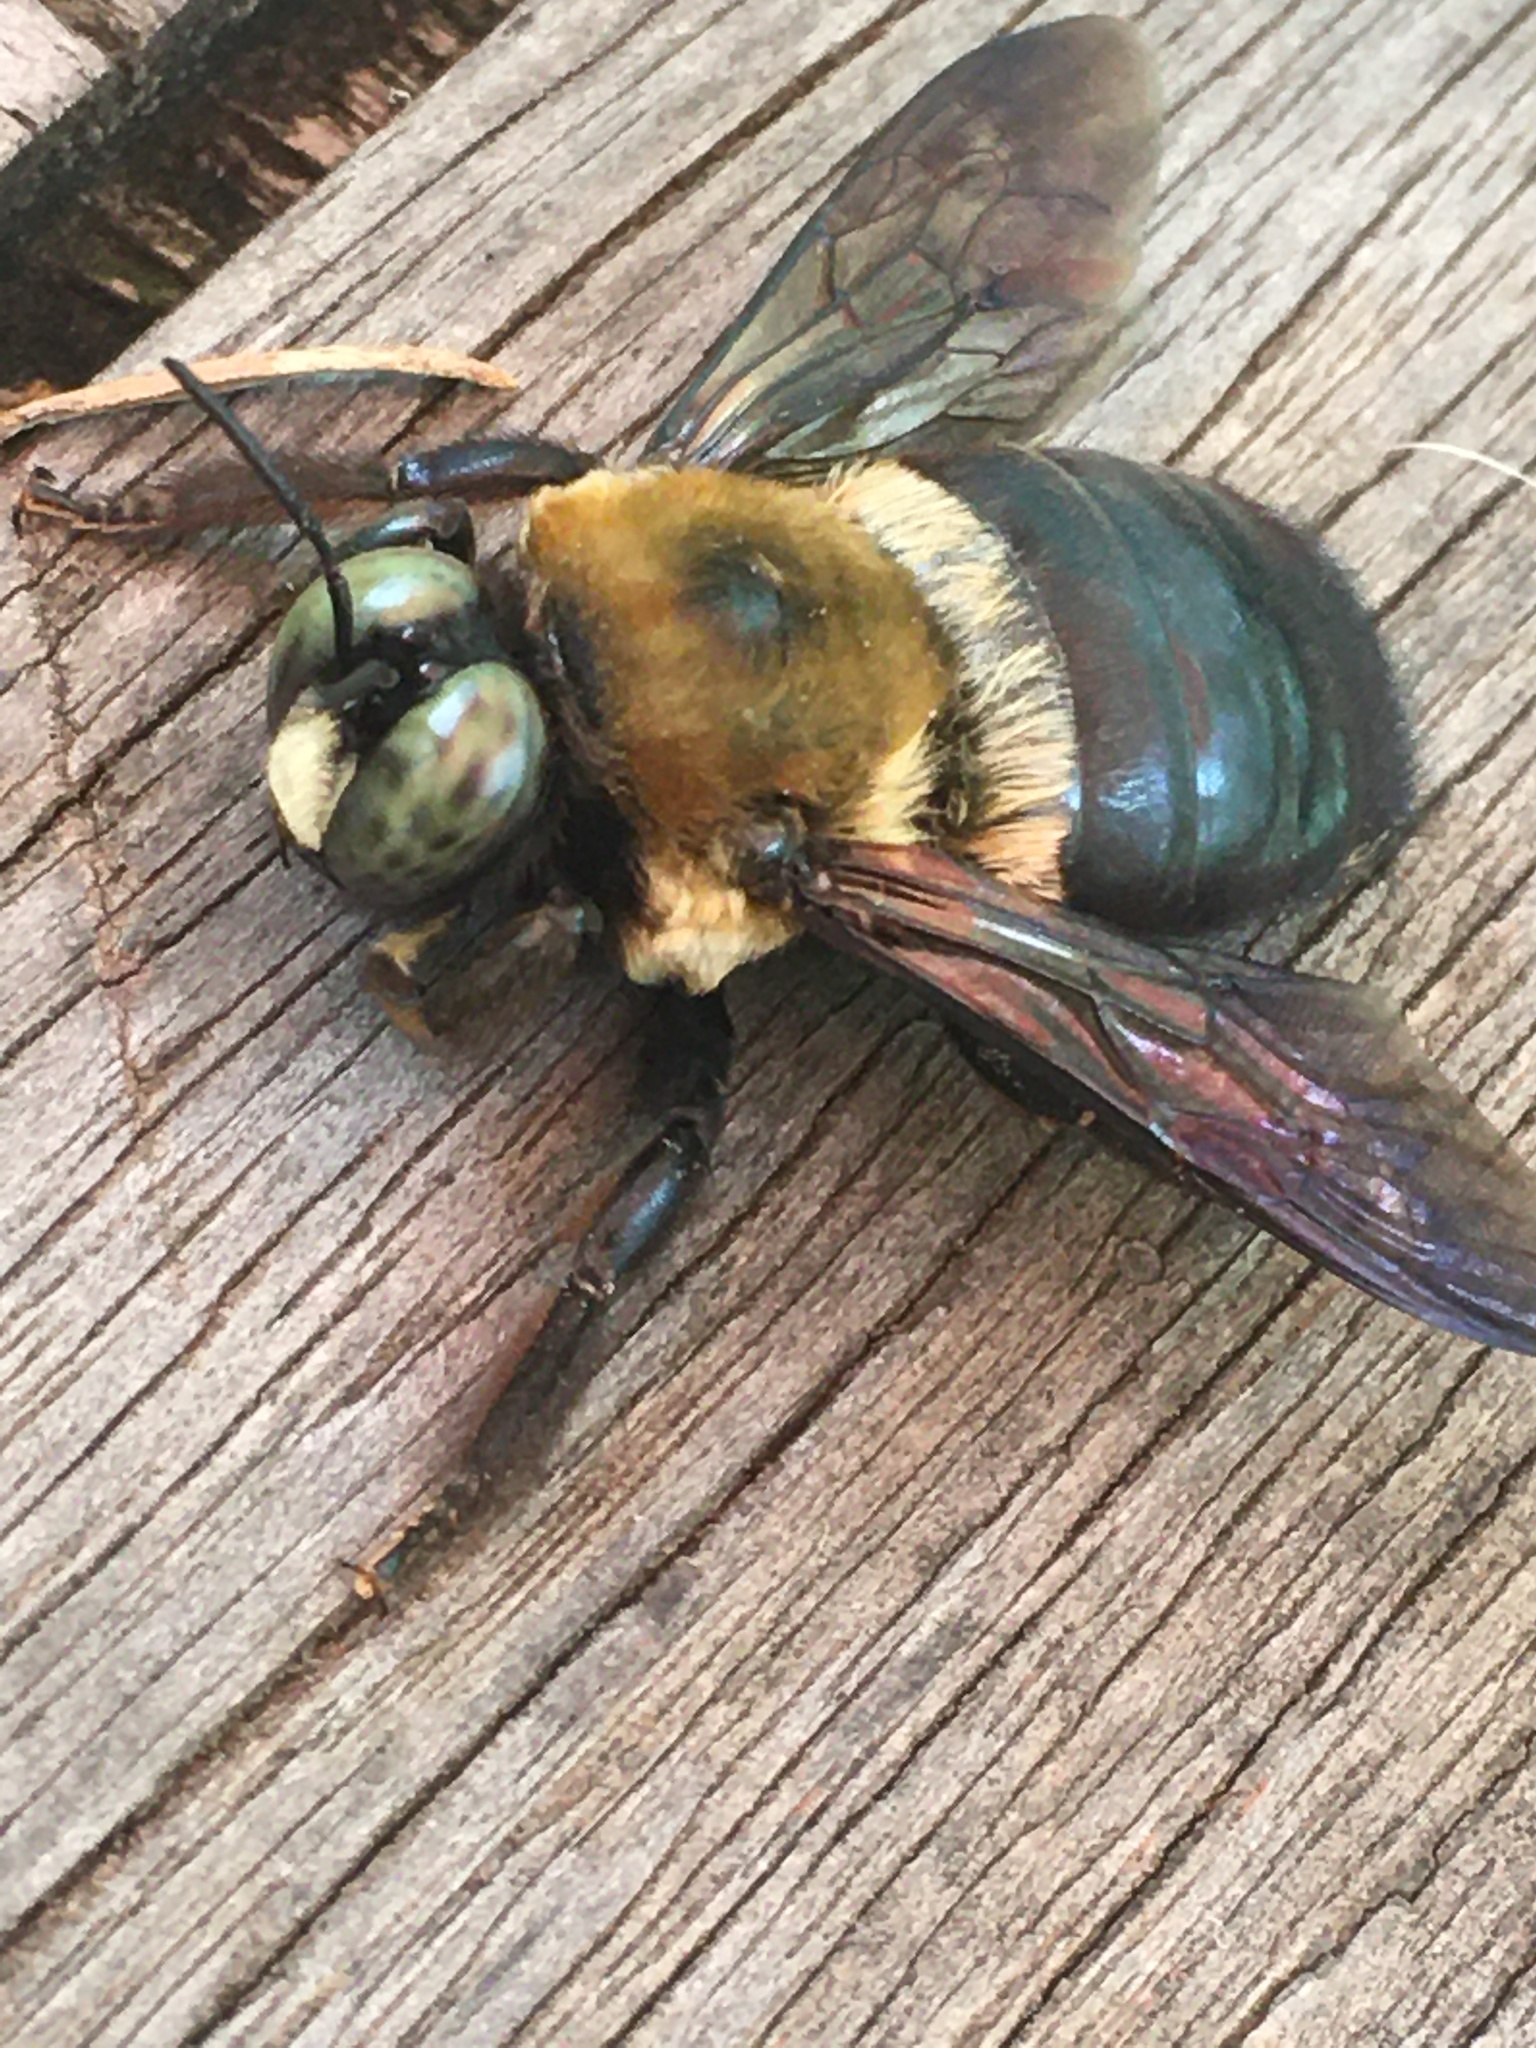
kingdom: Animalia
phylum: Arthropoda
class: Insecta
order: Hymenoptera
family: Apidae
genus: Xylocopa
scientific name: Xylocopa virginica
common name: Carpenter bee
